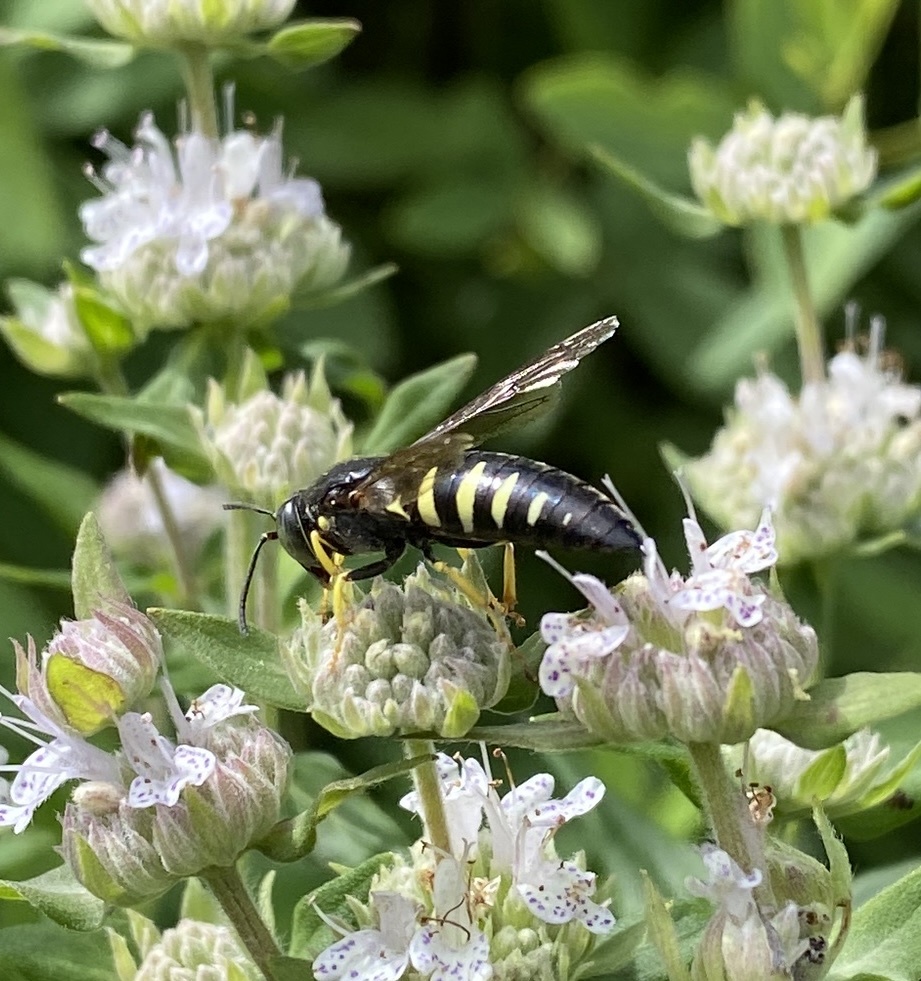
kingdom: Animalia
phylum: Arthropoda
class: Insecta
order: Hymenoptera
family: Crabronidae
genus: Bicyrtes
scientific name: Bicyrtes quadrifasciatus
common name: Four-banded stink bug hunter wasp
